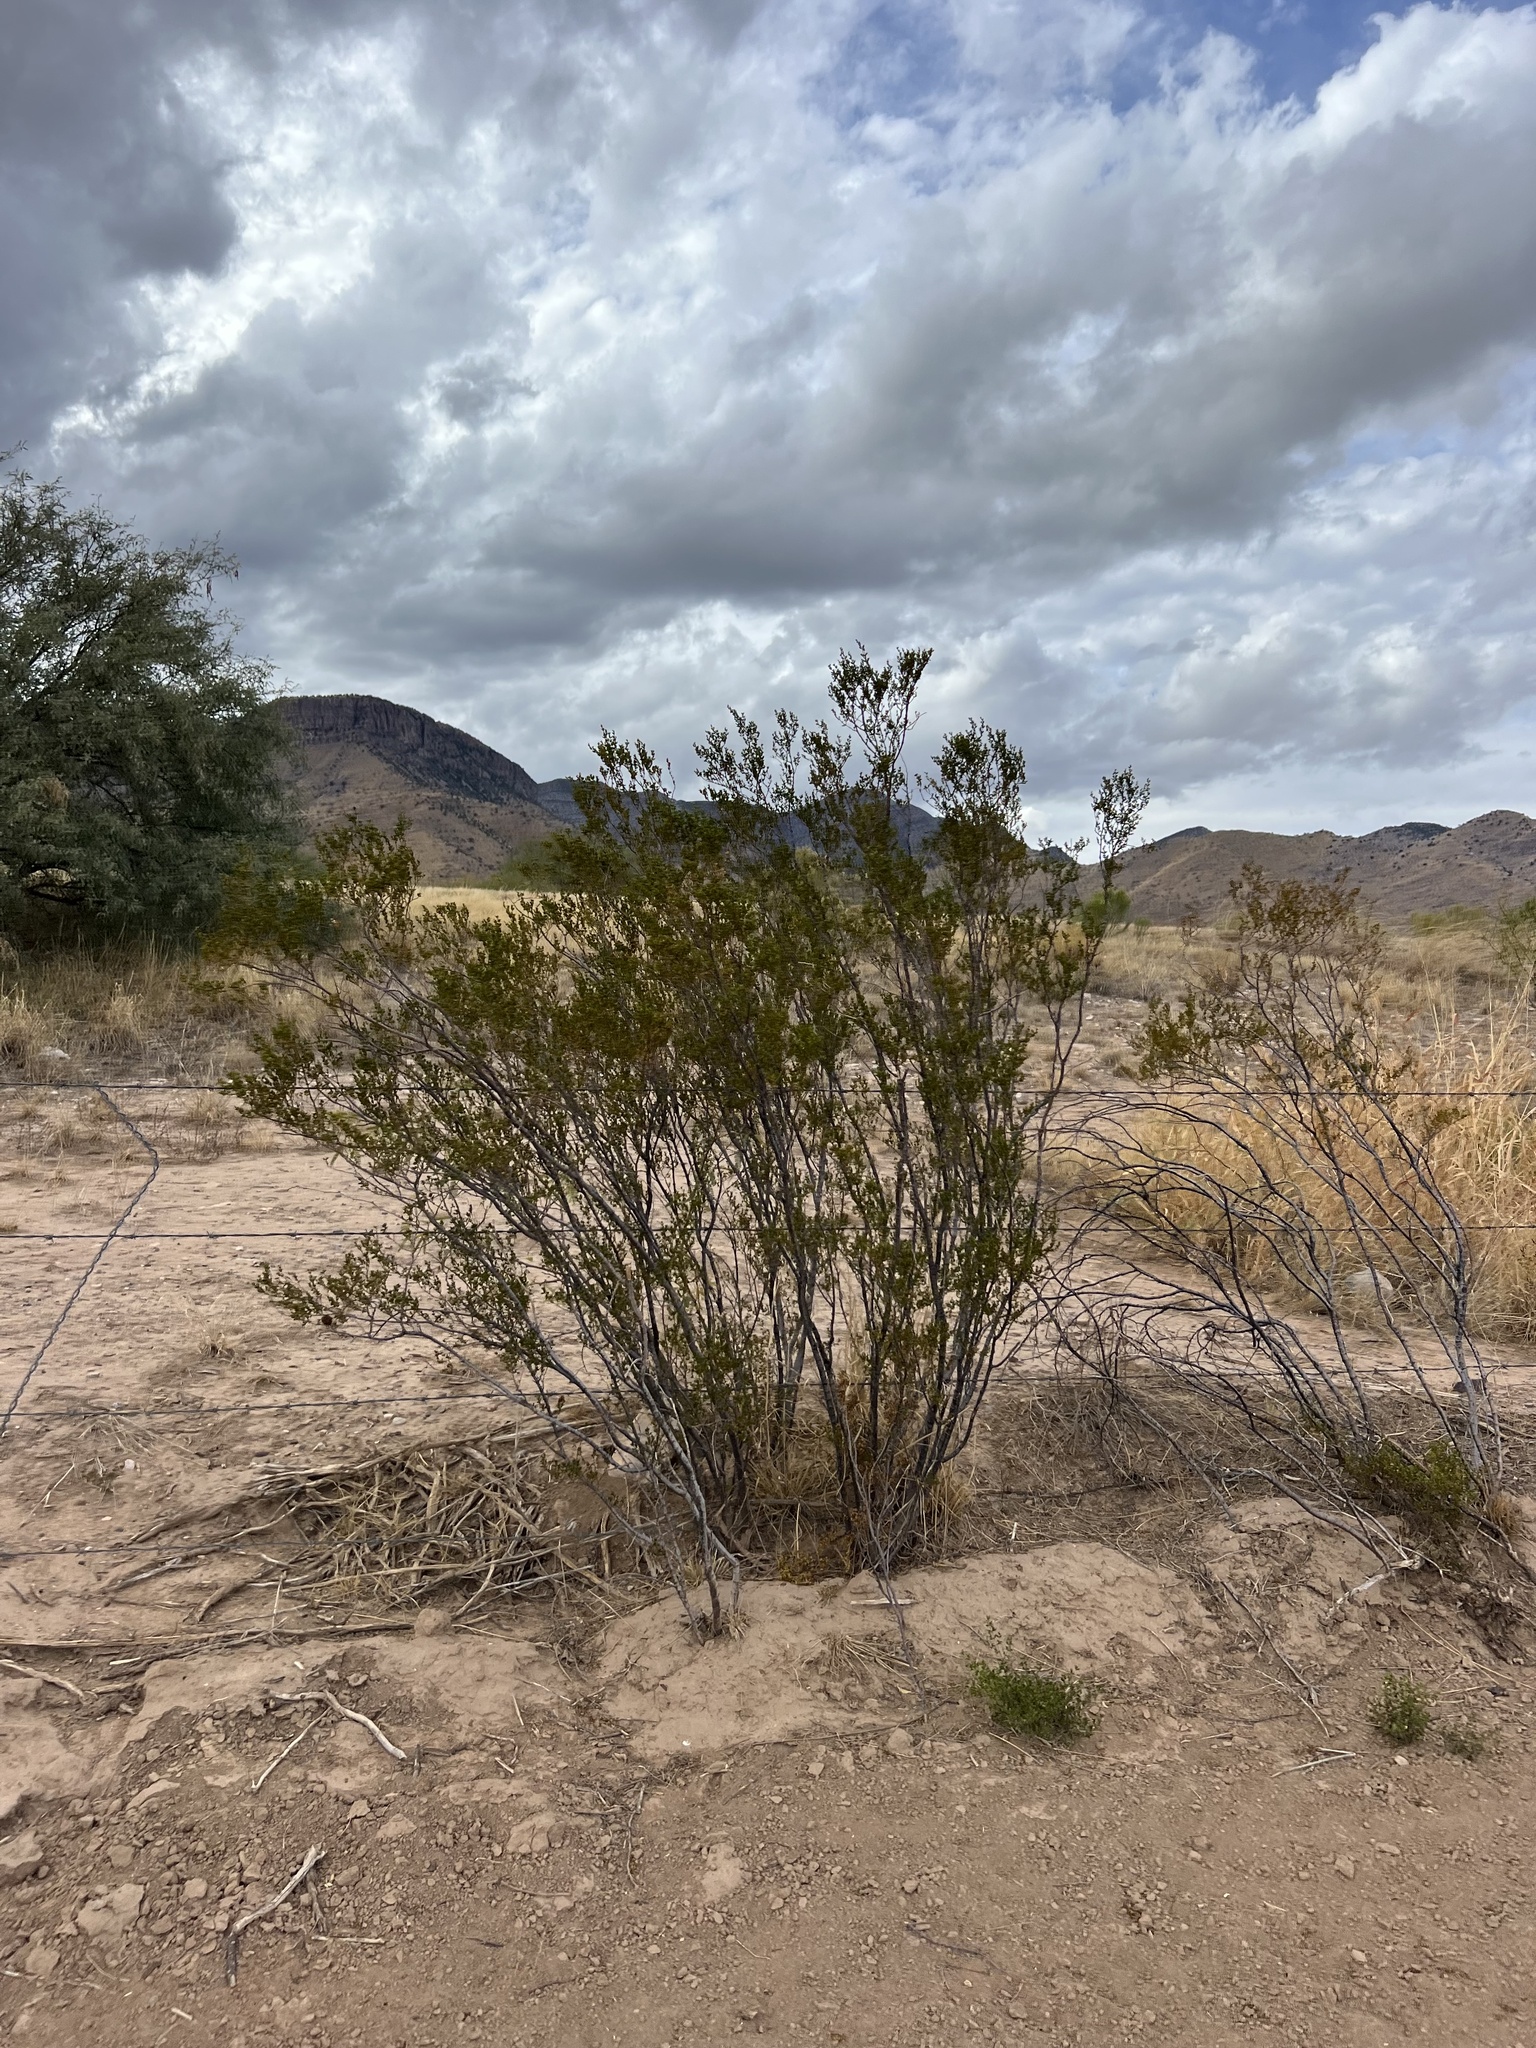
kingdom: Plantae
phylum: Tracheophyta
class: Magnoliopsida
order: Zygophyllales
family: Zygophyllaceae
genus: Larrea
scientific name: Larrea tridentata
